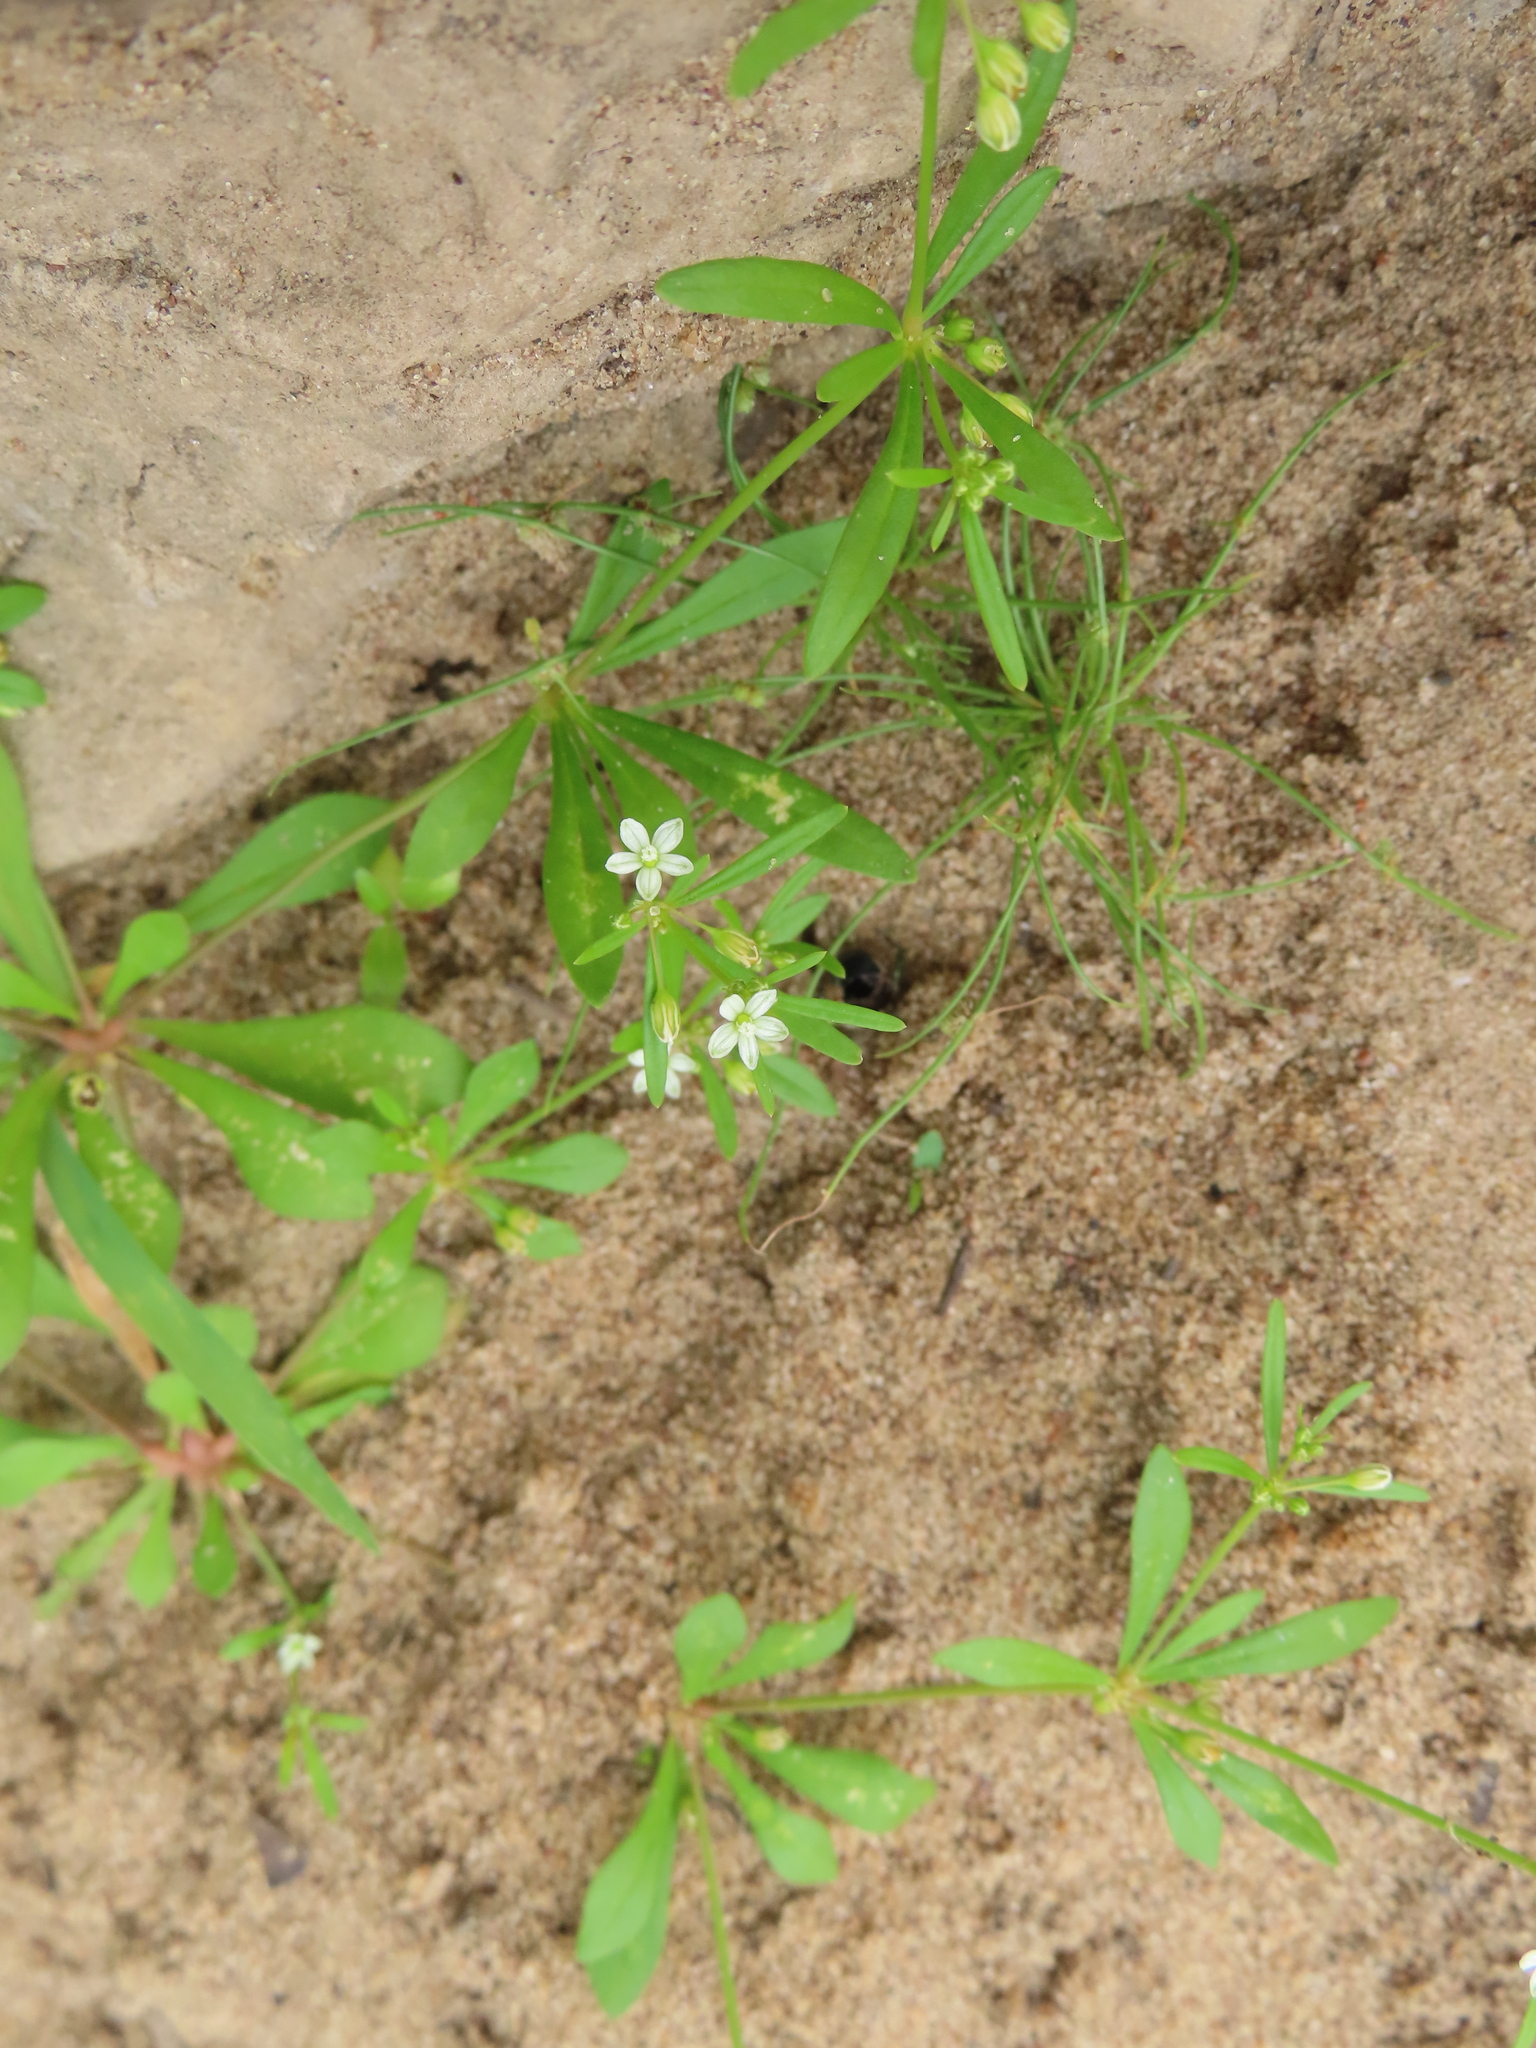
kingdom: Plantae
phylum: Tracheophyta
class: Magnoliopsida
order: Caryophyllales
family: Molluginaceae
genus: Mollugo
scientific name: Mollugo verticillata
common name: Green carpetweed
